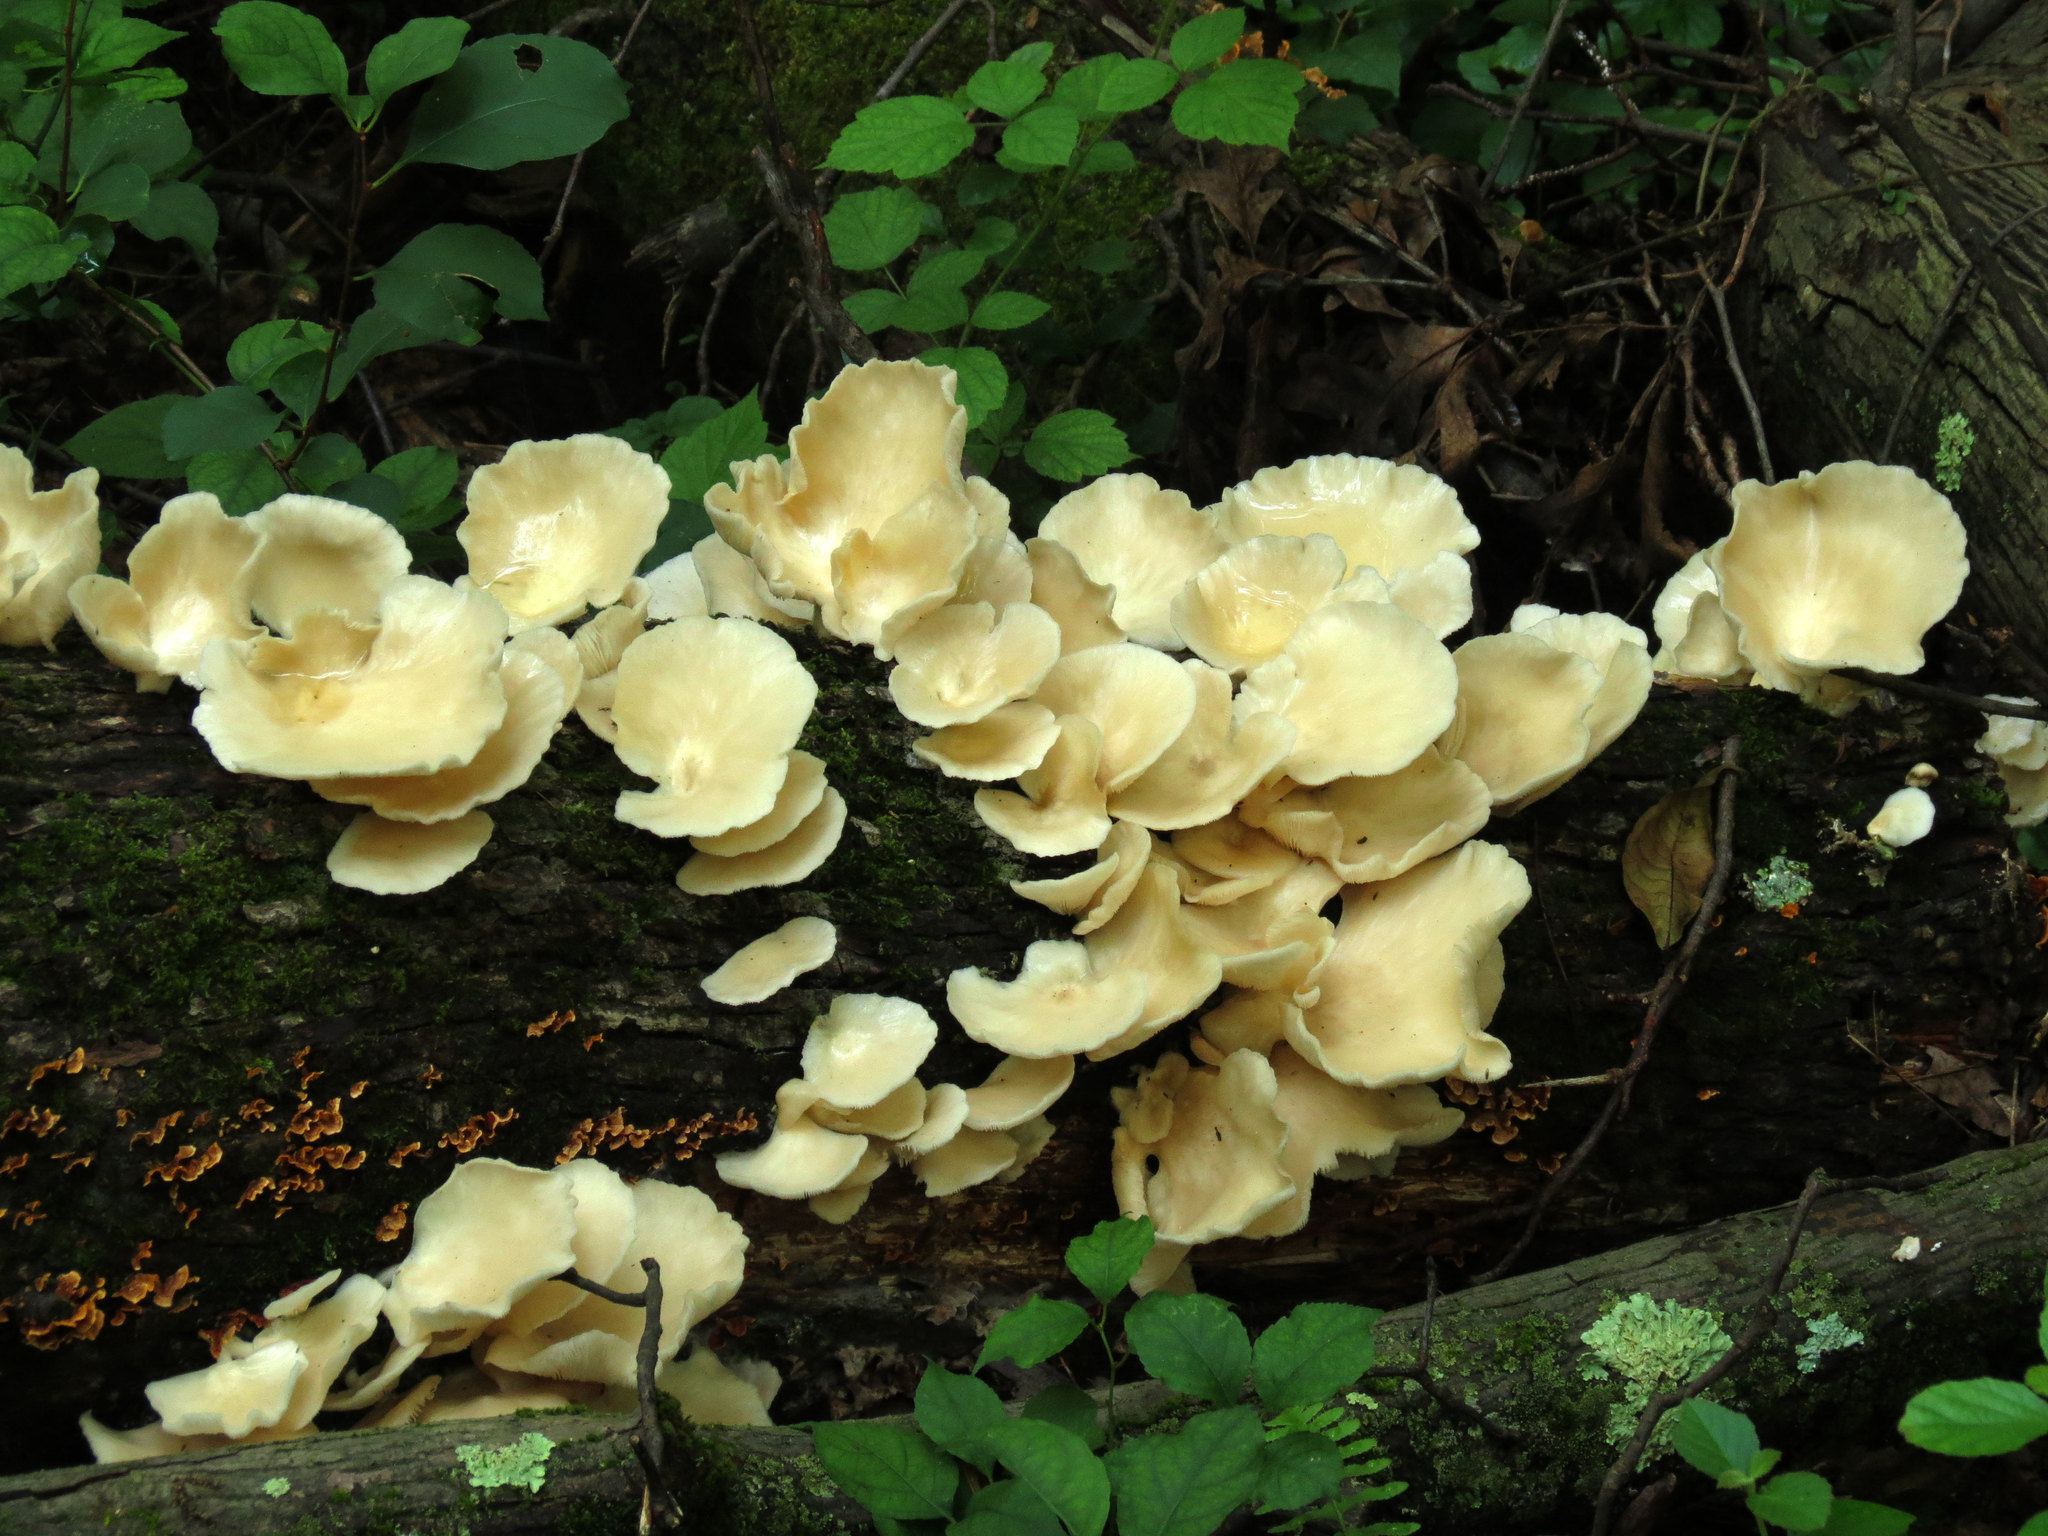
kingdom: Fungi
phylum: Basidiomycota
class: Agaricomycetes
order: Agaricales
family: Marasmiaceae
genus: Pleurocybella
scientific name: Pleurocybella porrigens
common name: Angel's wings
